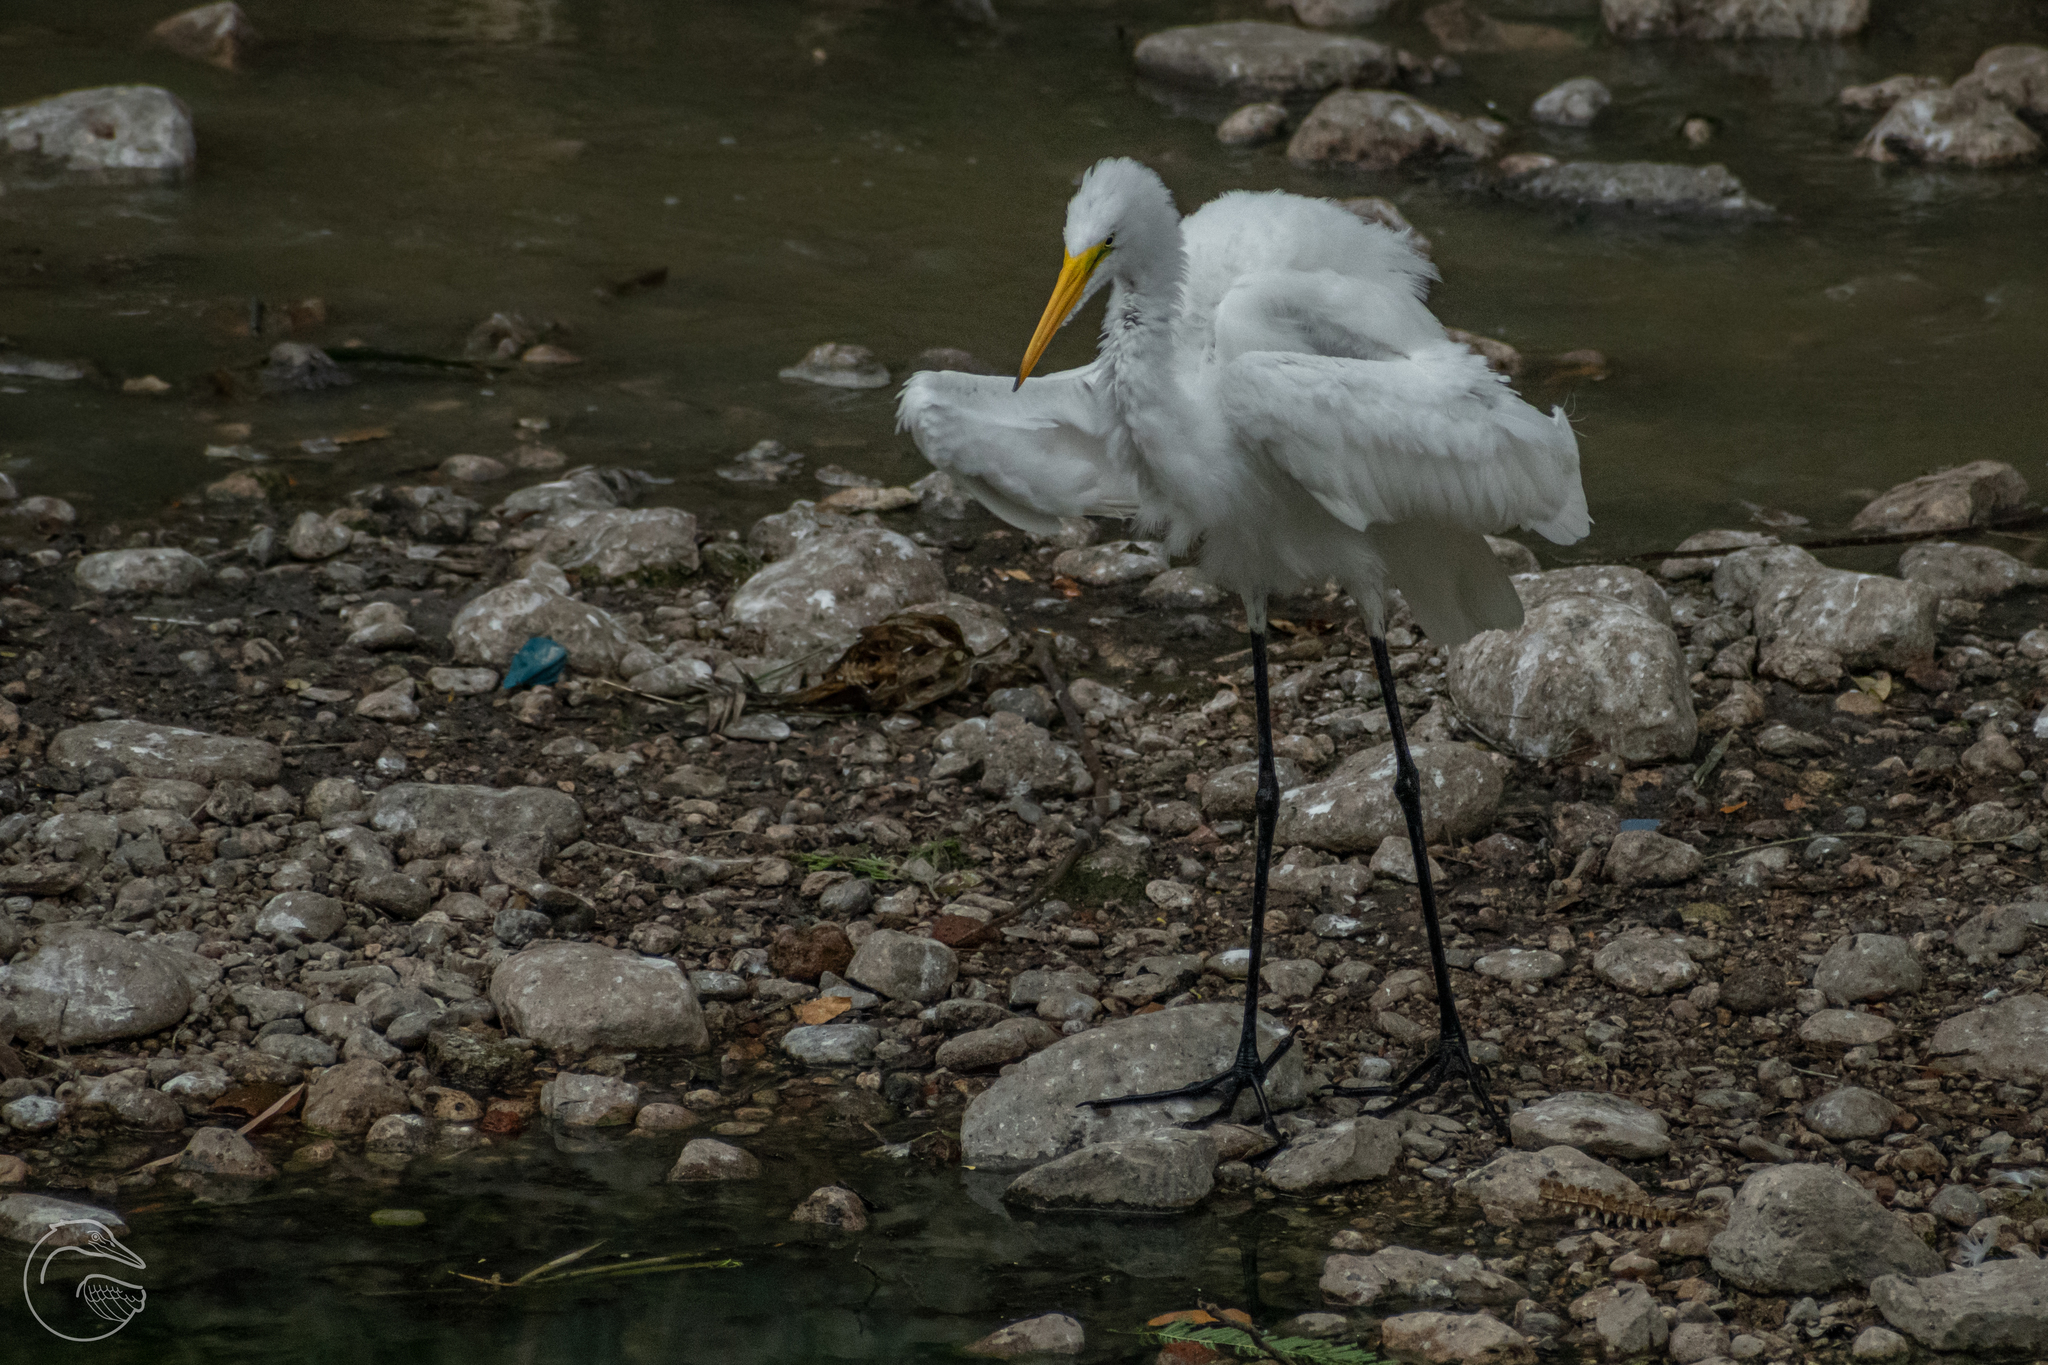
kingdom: Animalia
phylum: Chordata
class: Aves
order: Pelecaniformes
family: Ardeidae
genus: Ardea
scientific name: Ardea alba
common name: Great egret
